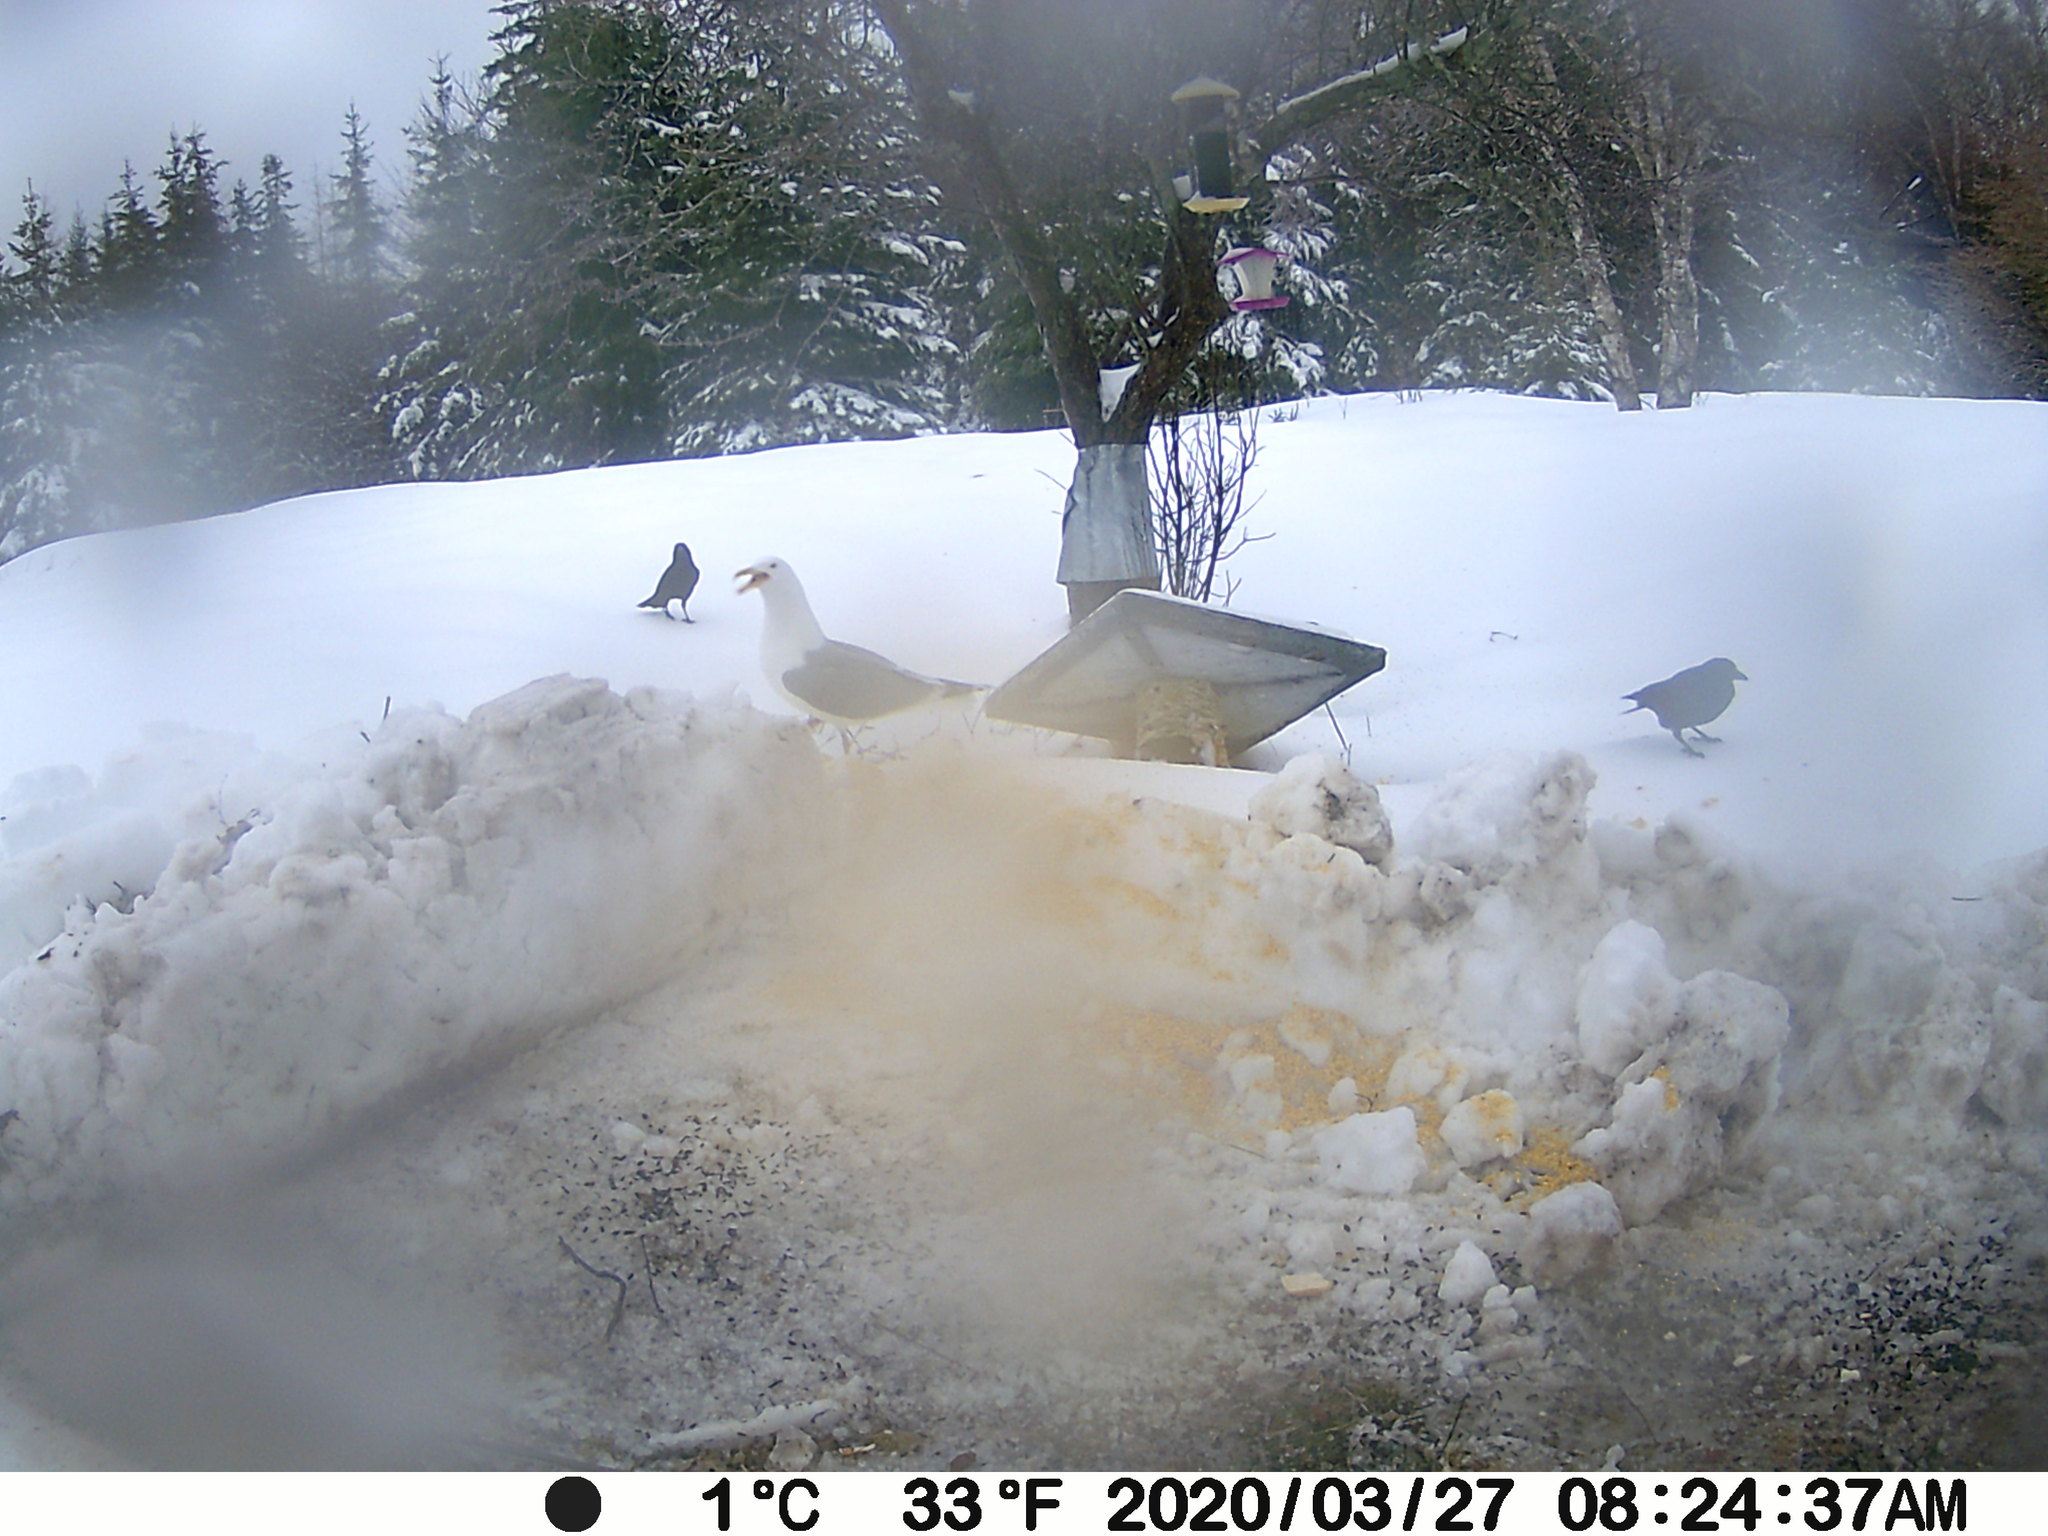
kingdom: Animalia
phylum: Chordata
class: Aves
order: Charadriiformes
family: Laridae
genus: Larus
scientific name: Larus argentatus
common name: Herring gull
